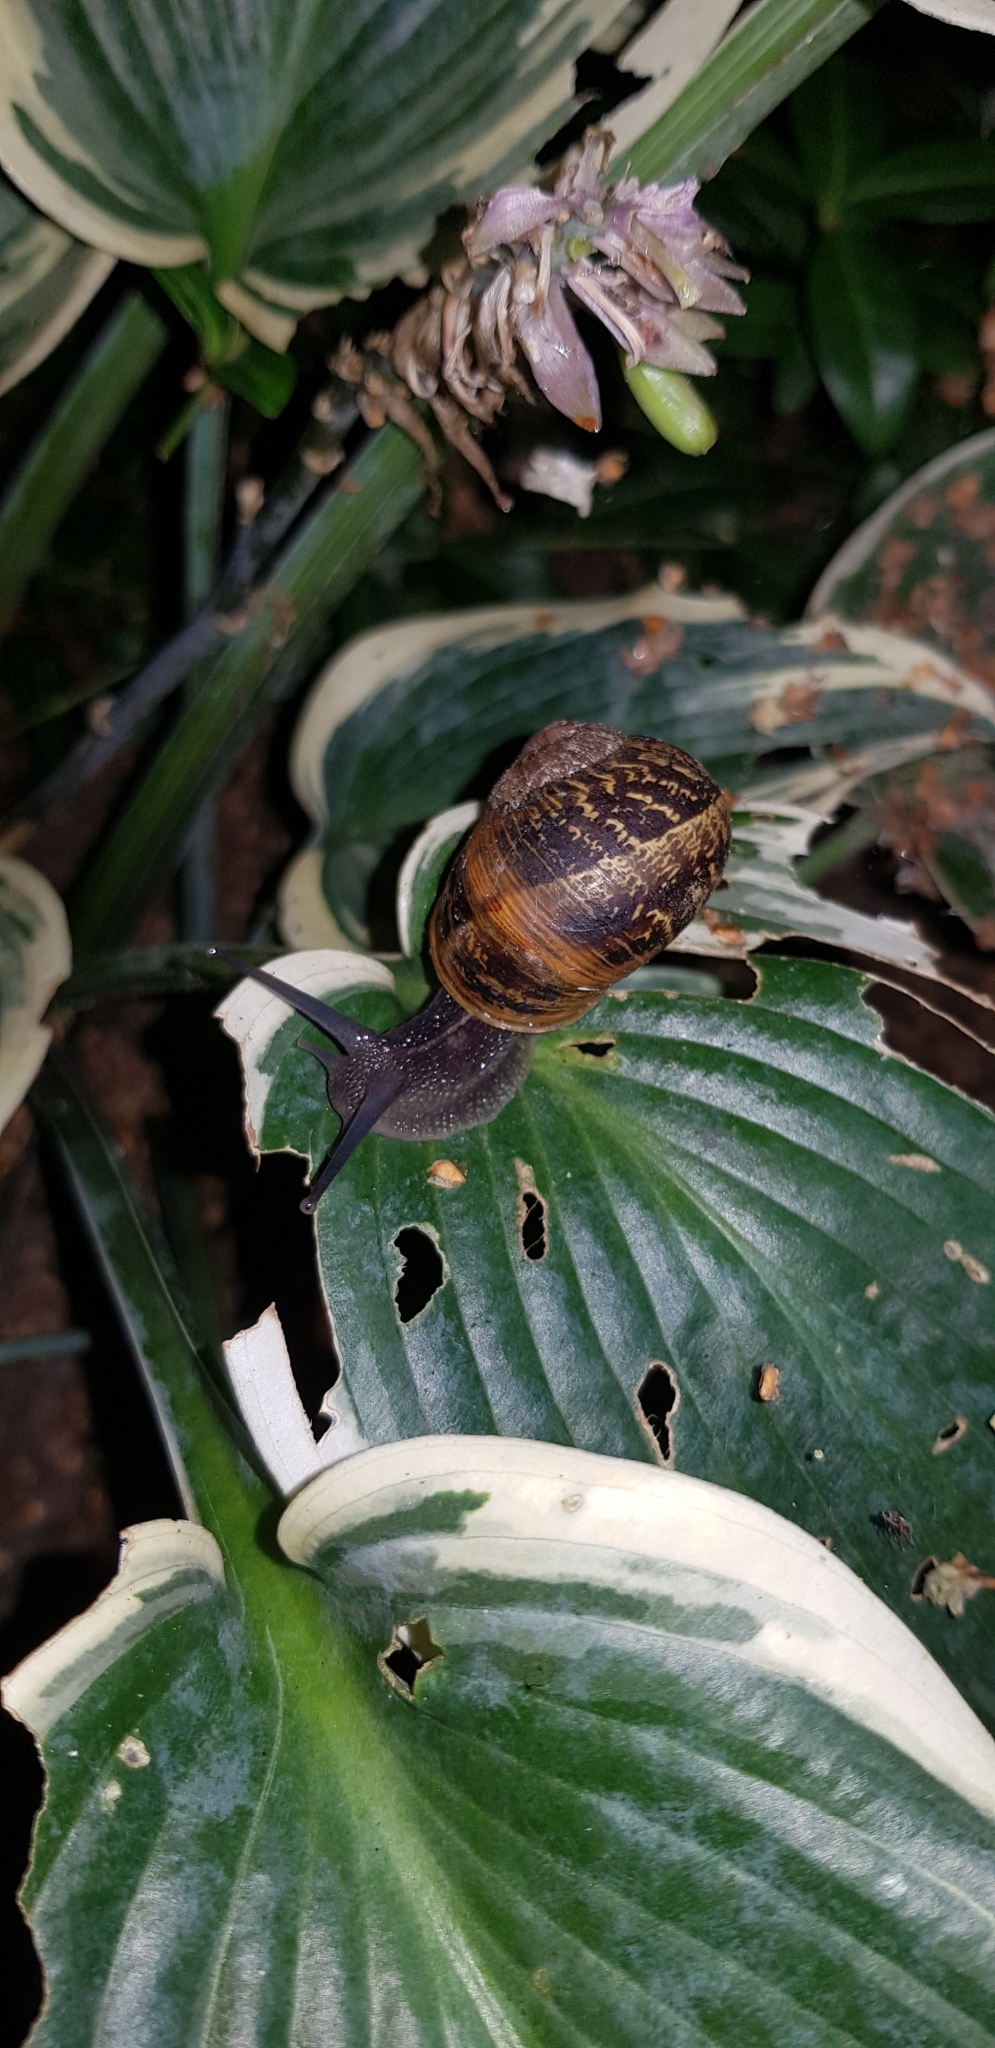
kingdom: Animalia
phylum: Mollusca
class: Gastropoda
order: Stylommatophora
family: Helicidae
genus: Cornu
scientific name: Cornu aspersum
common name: Brown garden snail
